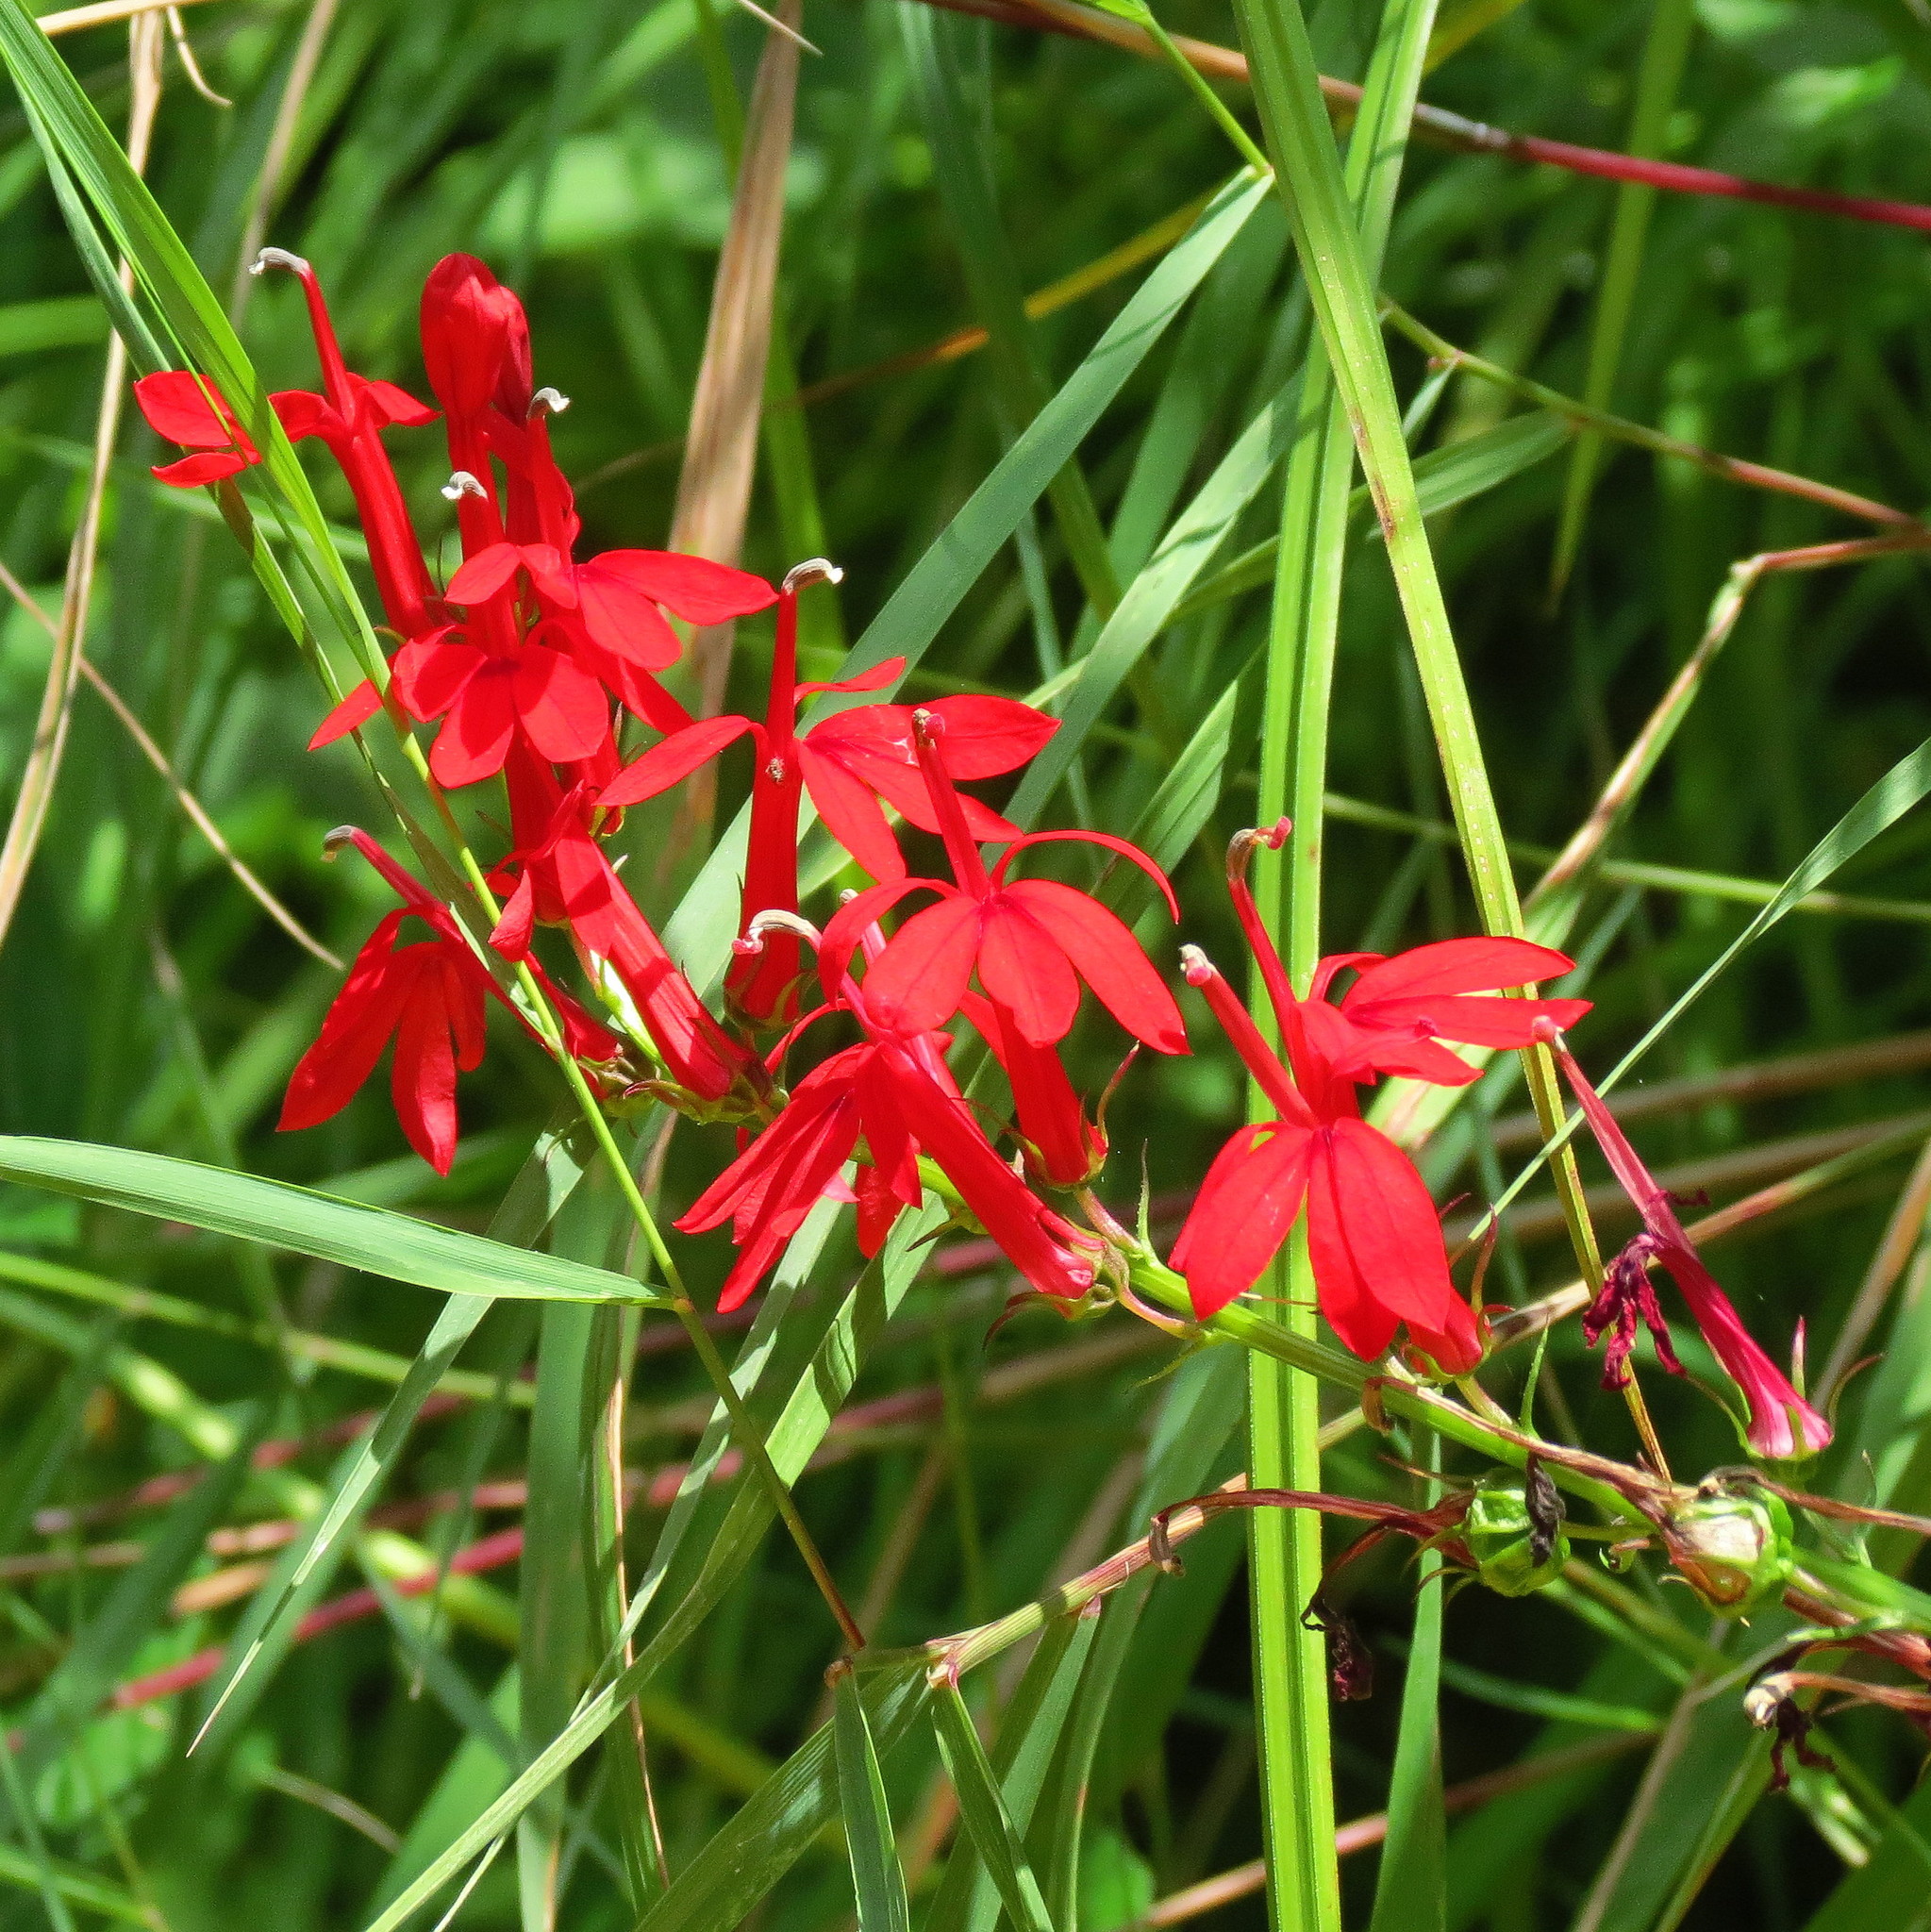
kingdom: Plantae
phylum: Tracheophyta
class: Magnoliopsida
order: Asterales
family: Campanulaceae
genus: Lobelia
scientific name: Lobelia cardinalis
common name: Cardinal flower
